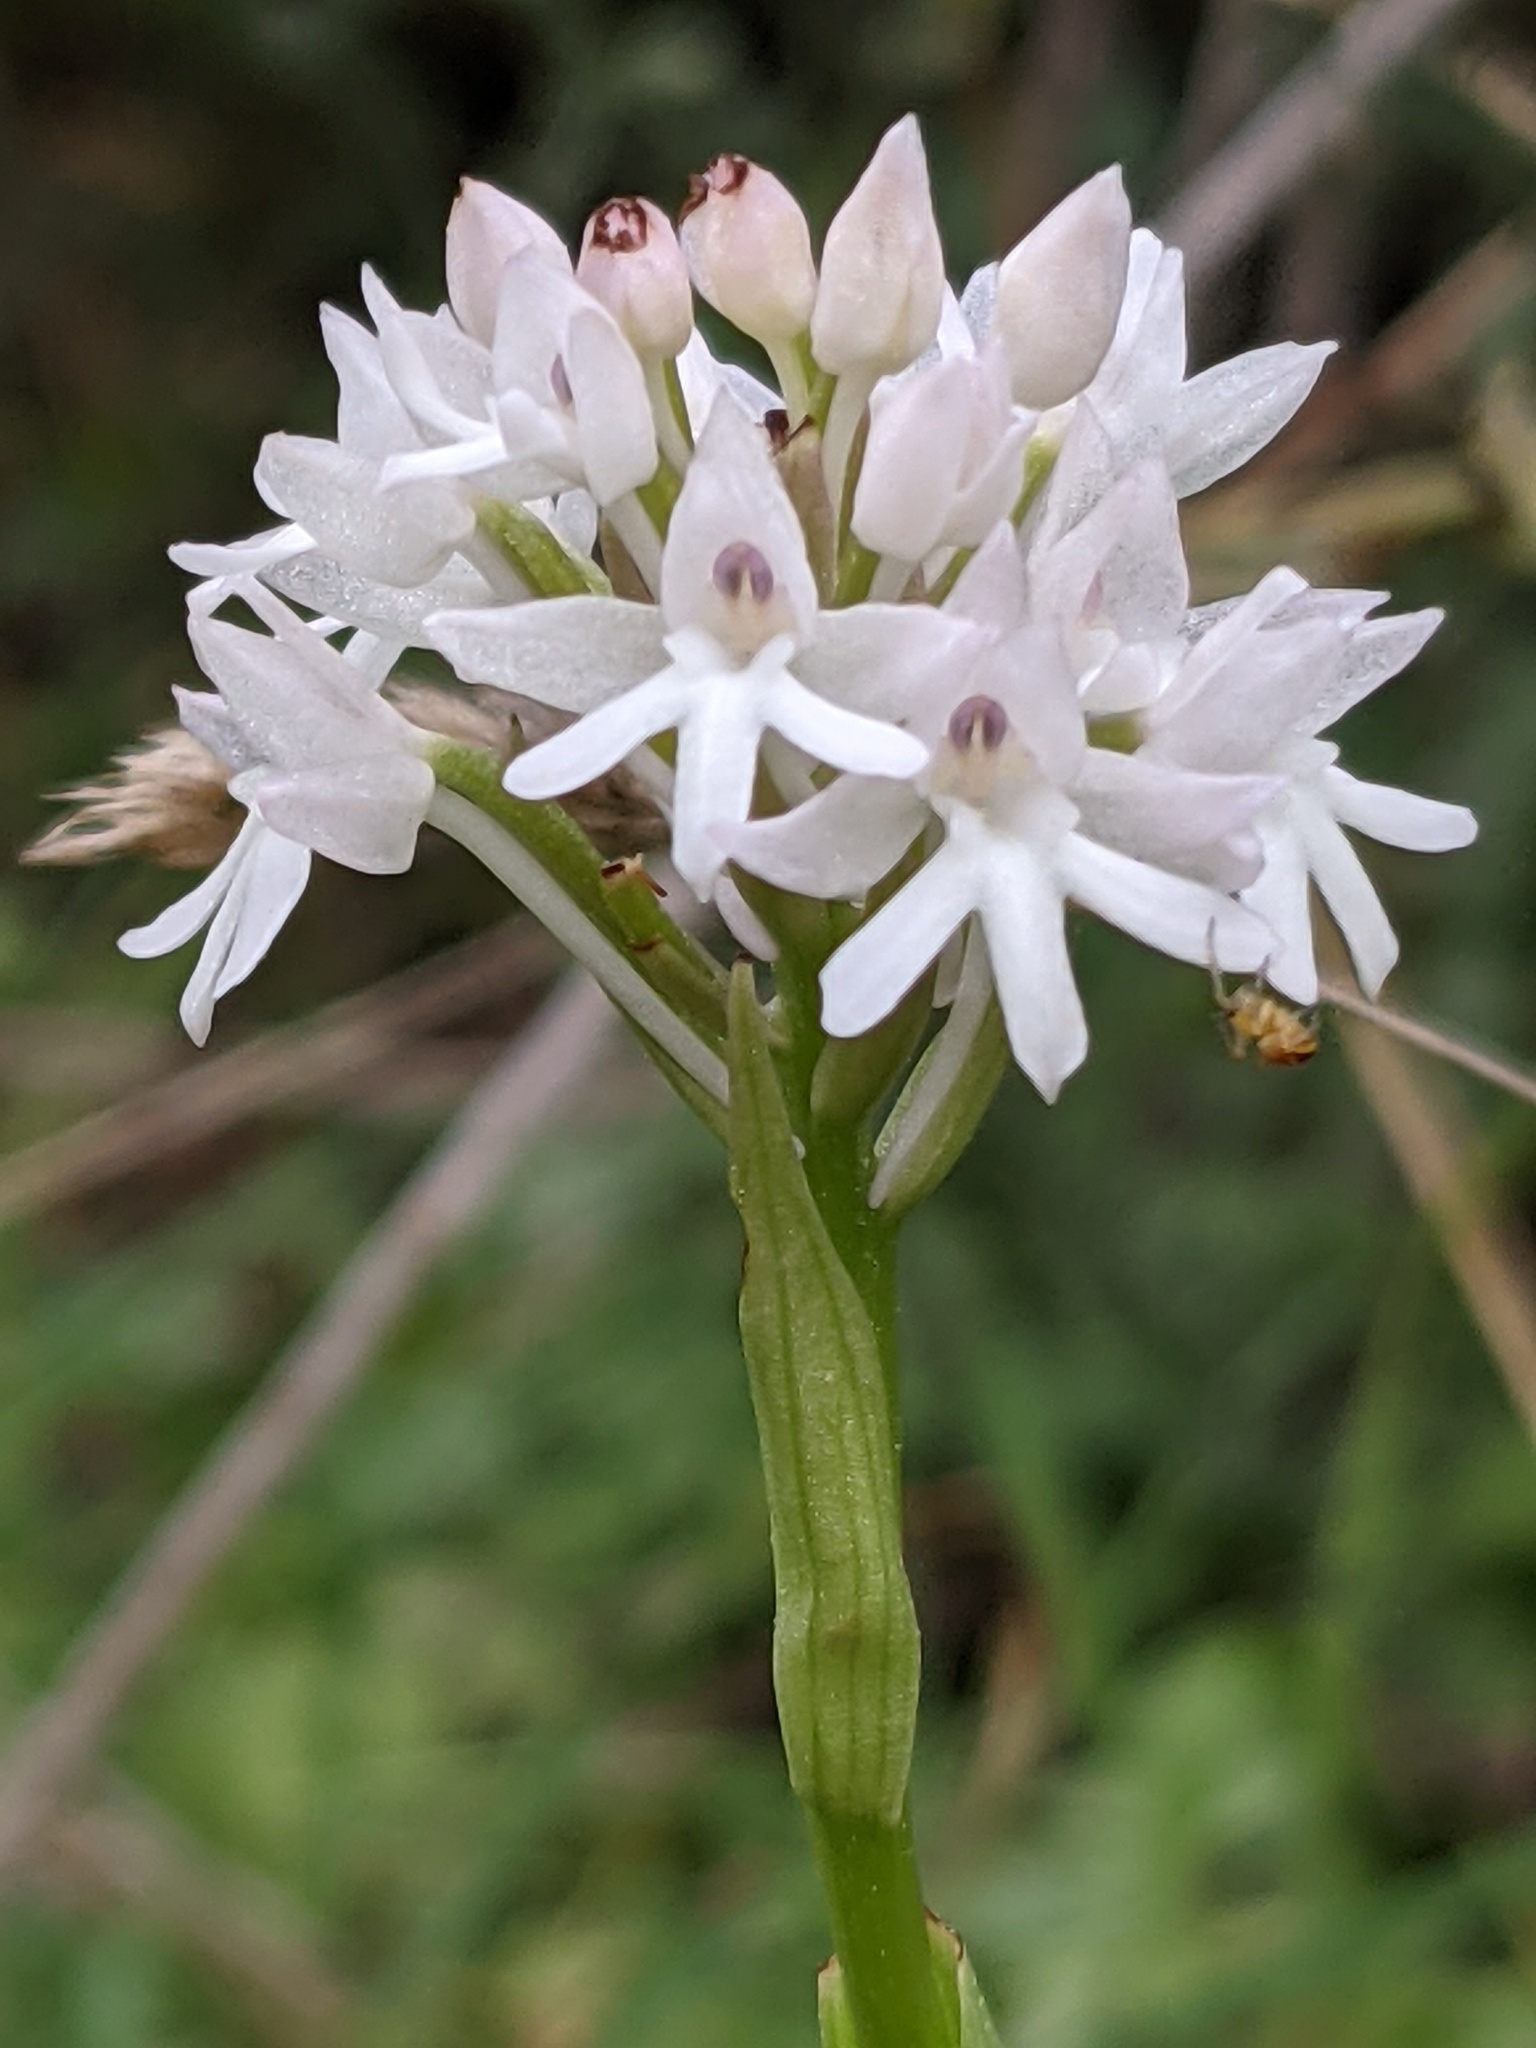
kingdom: Plantae
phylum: Tracheophyta
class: Liliopsida
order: Asparagales
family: Orchidaceae
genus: Anacamptis
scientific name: Anacamptis pyramidalis
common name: Pyramidal orchid
